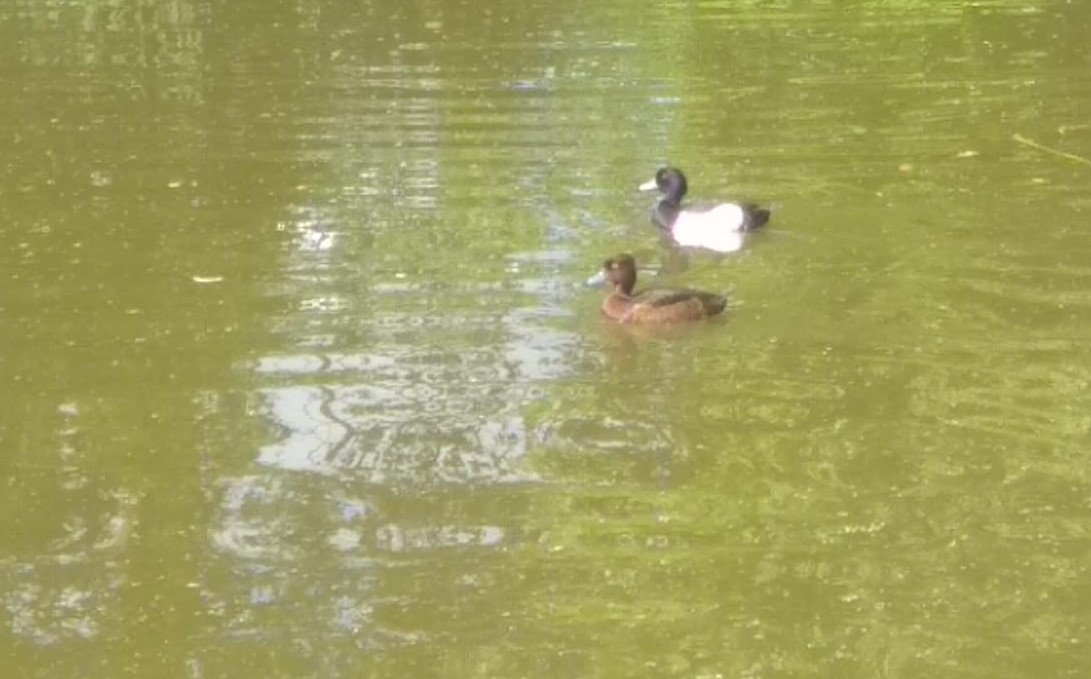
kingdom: Animalia
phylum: Chordata
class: Aves
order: Anseriformes
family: Anatidae
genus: Aythya
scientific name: Aythya fuligula
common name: Tufted duck
